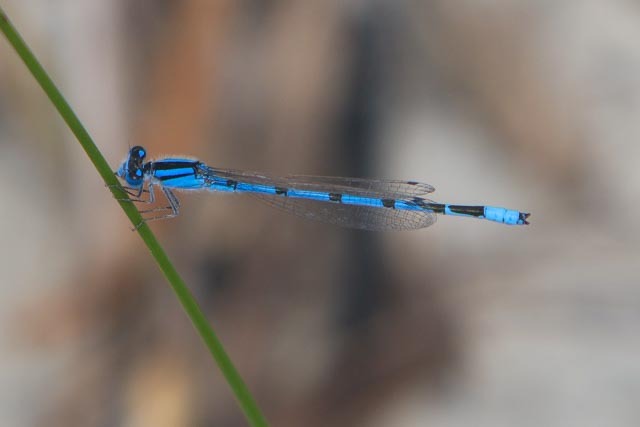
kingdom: Animalia
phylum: Arthropoda
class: Insecta
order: Odonata
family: Coenagrionidae
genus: Enallagma
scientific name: Enallagma civile
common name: Damselfly
